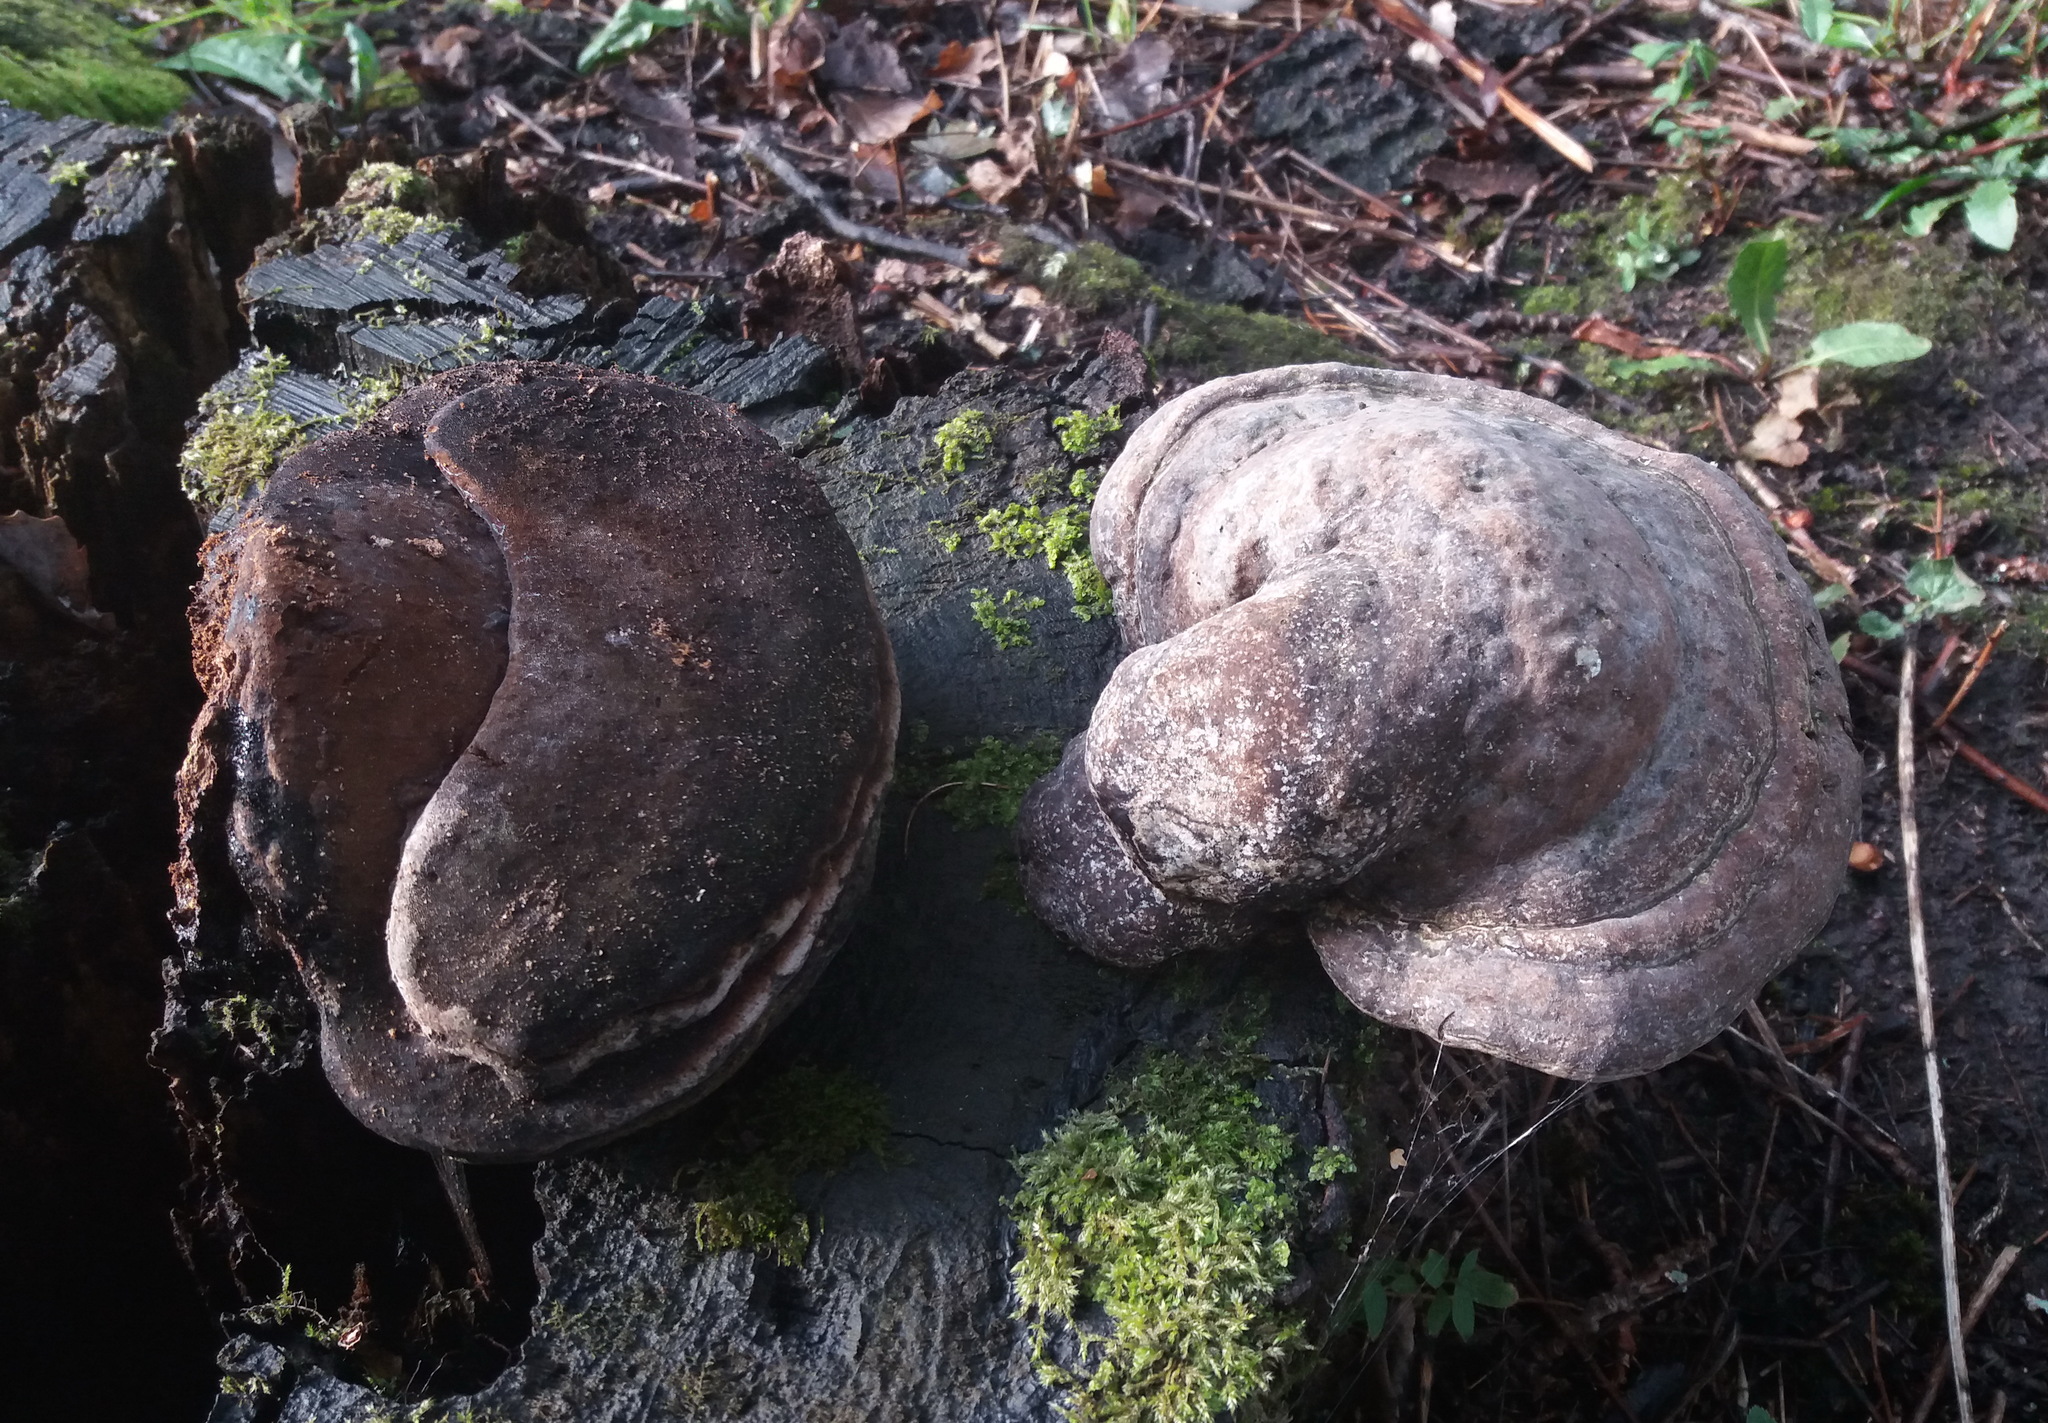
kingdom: Fungi
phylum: Basidiomycota
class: Agaricomycetes
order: Polyporales
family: Polyporaceae
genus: Fomes
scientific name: Fomes fomentarius
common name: Hoof fungus
